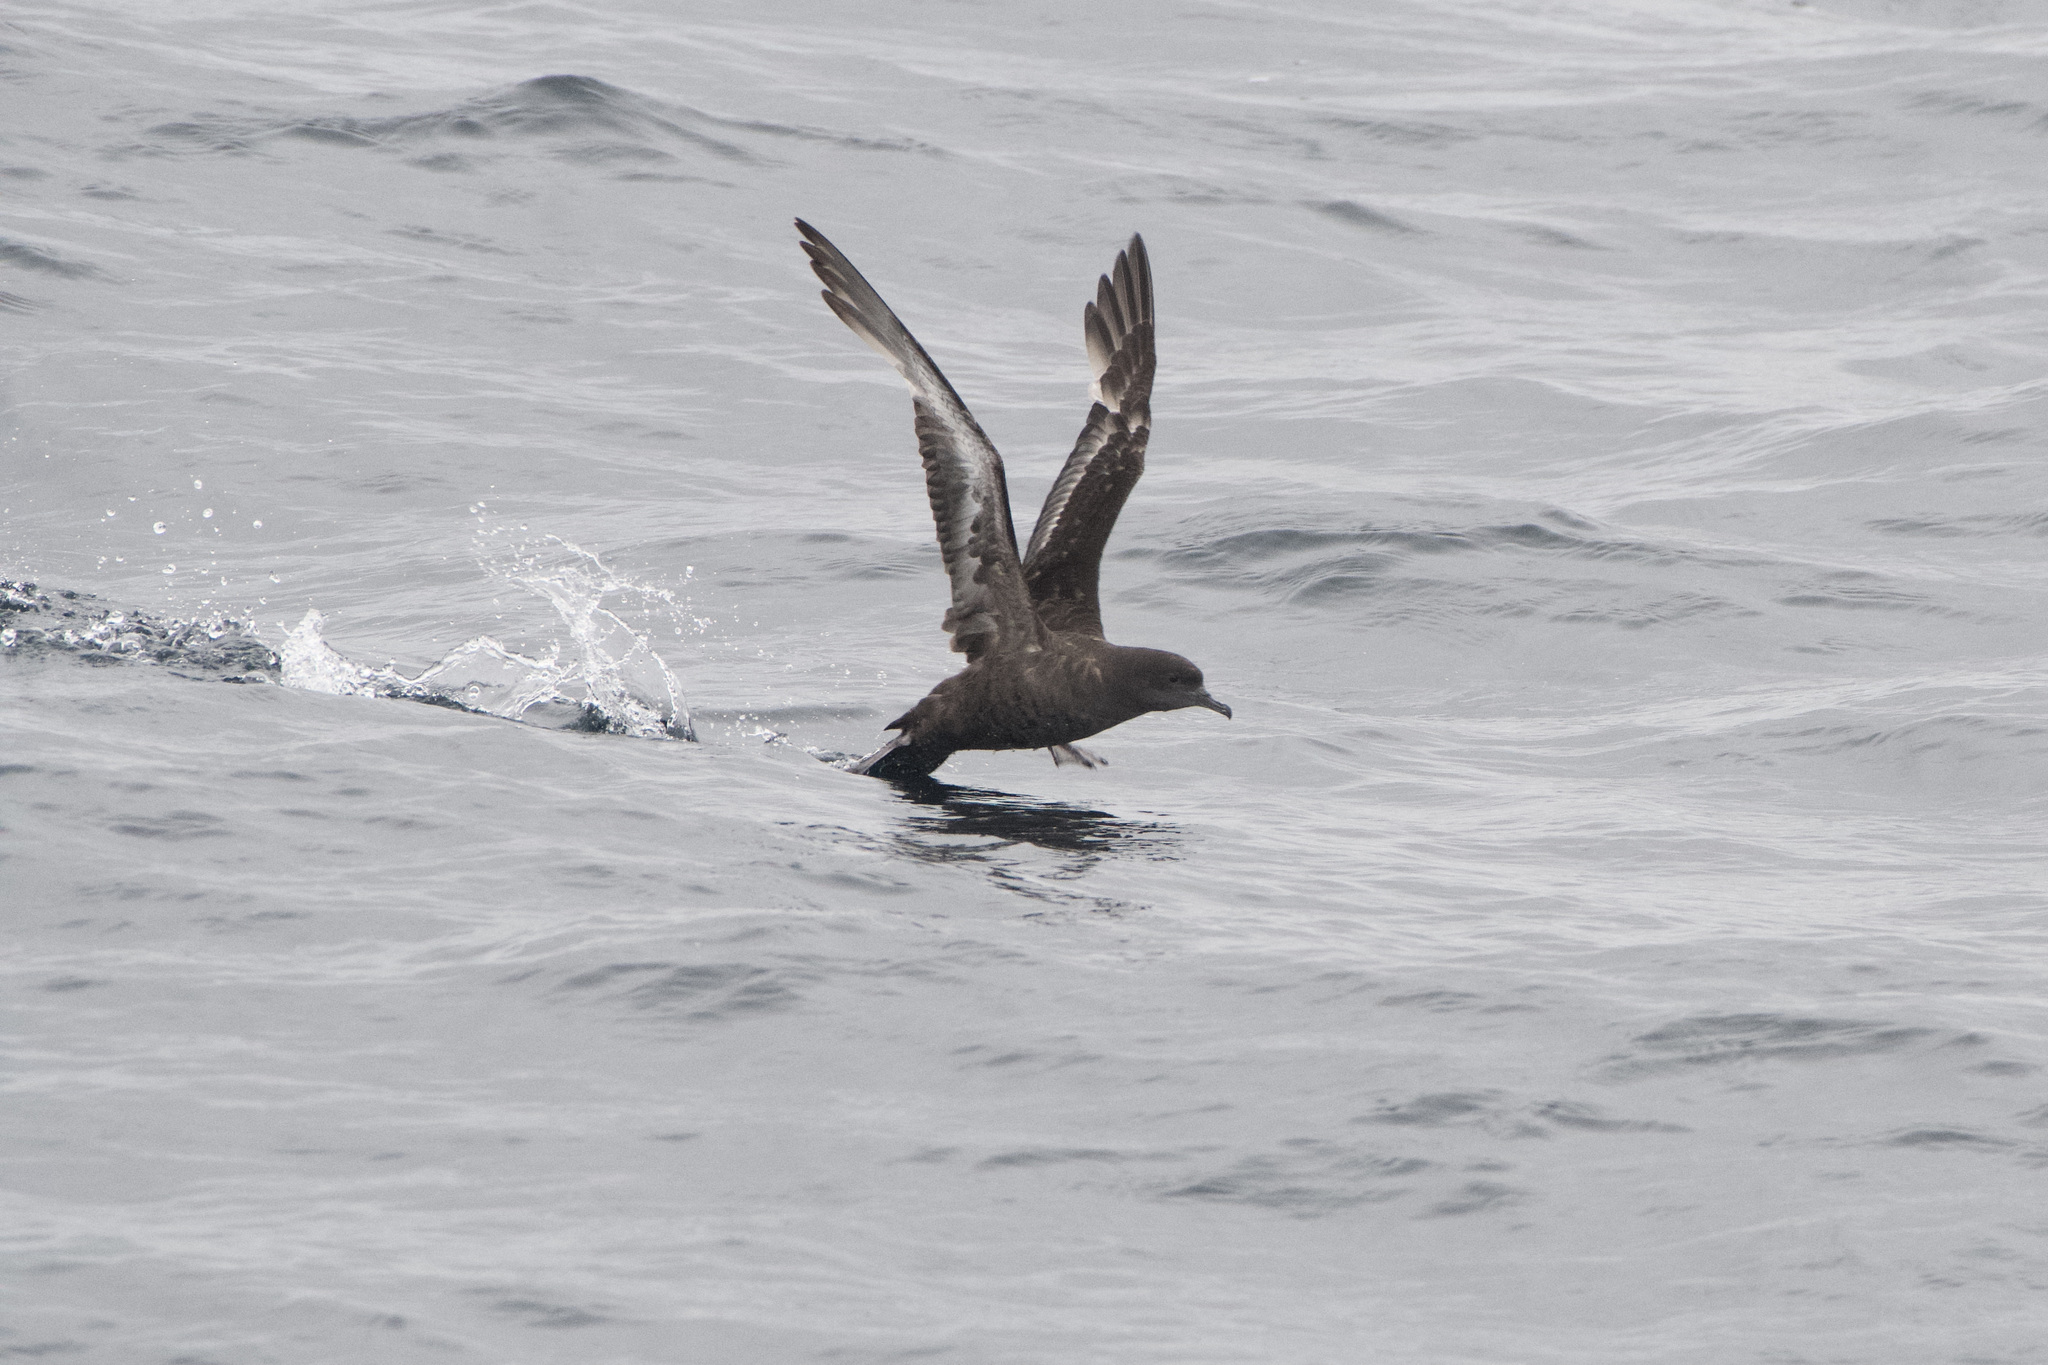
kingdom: Animalia
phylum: Chordata
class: Aves
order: Procellariiformes
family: Procellariidae
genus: Puffinus
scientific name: Puffinus griseus
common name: Sooty shearwater
